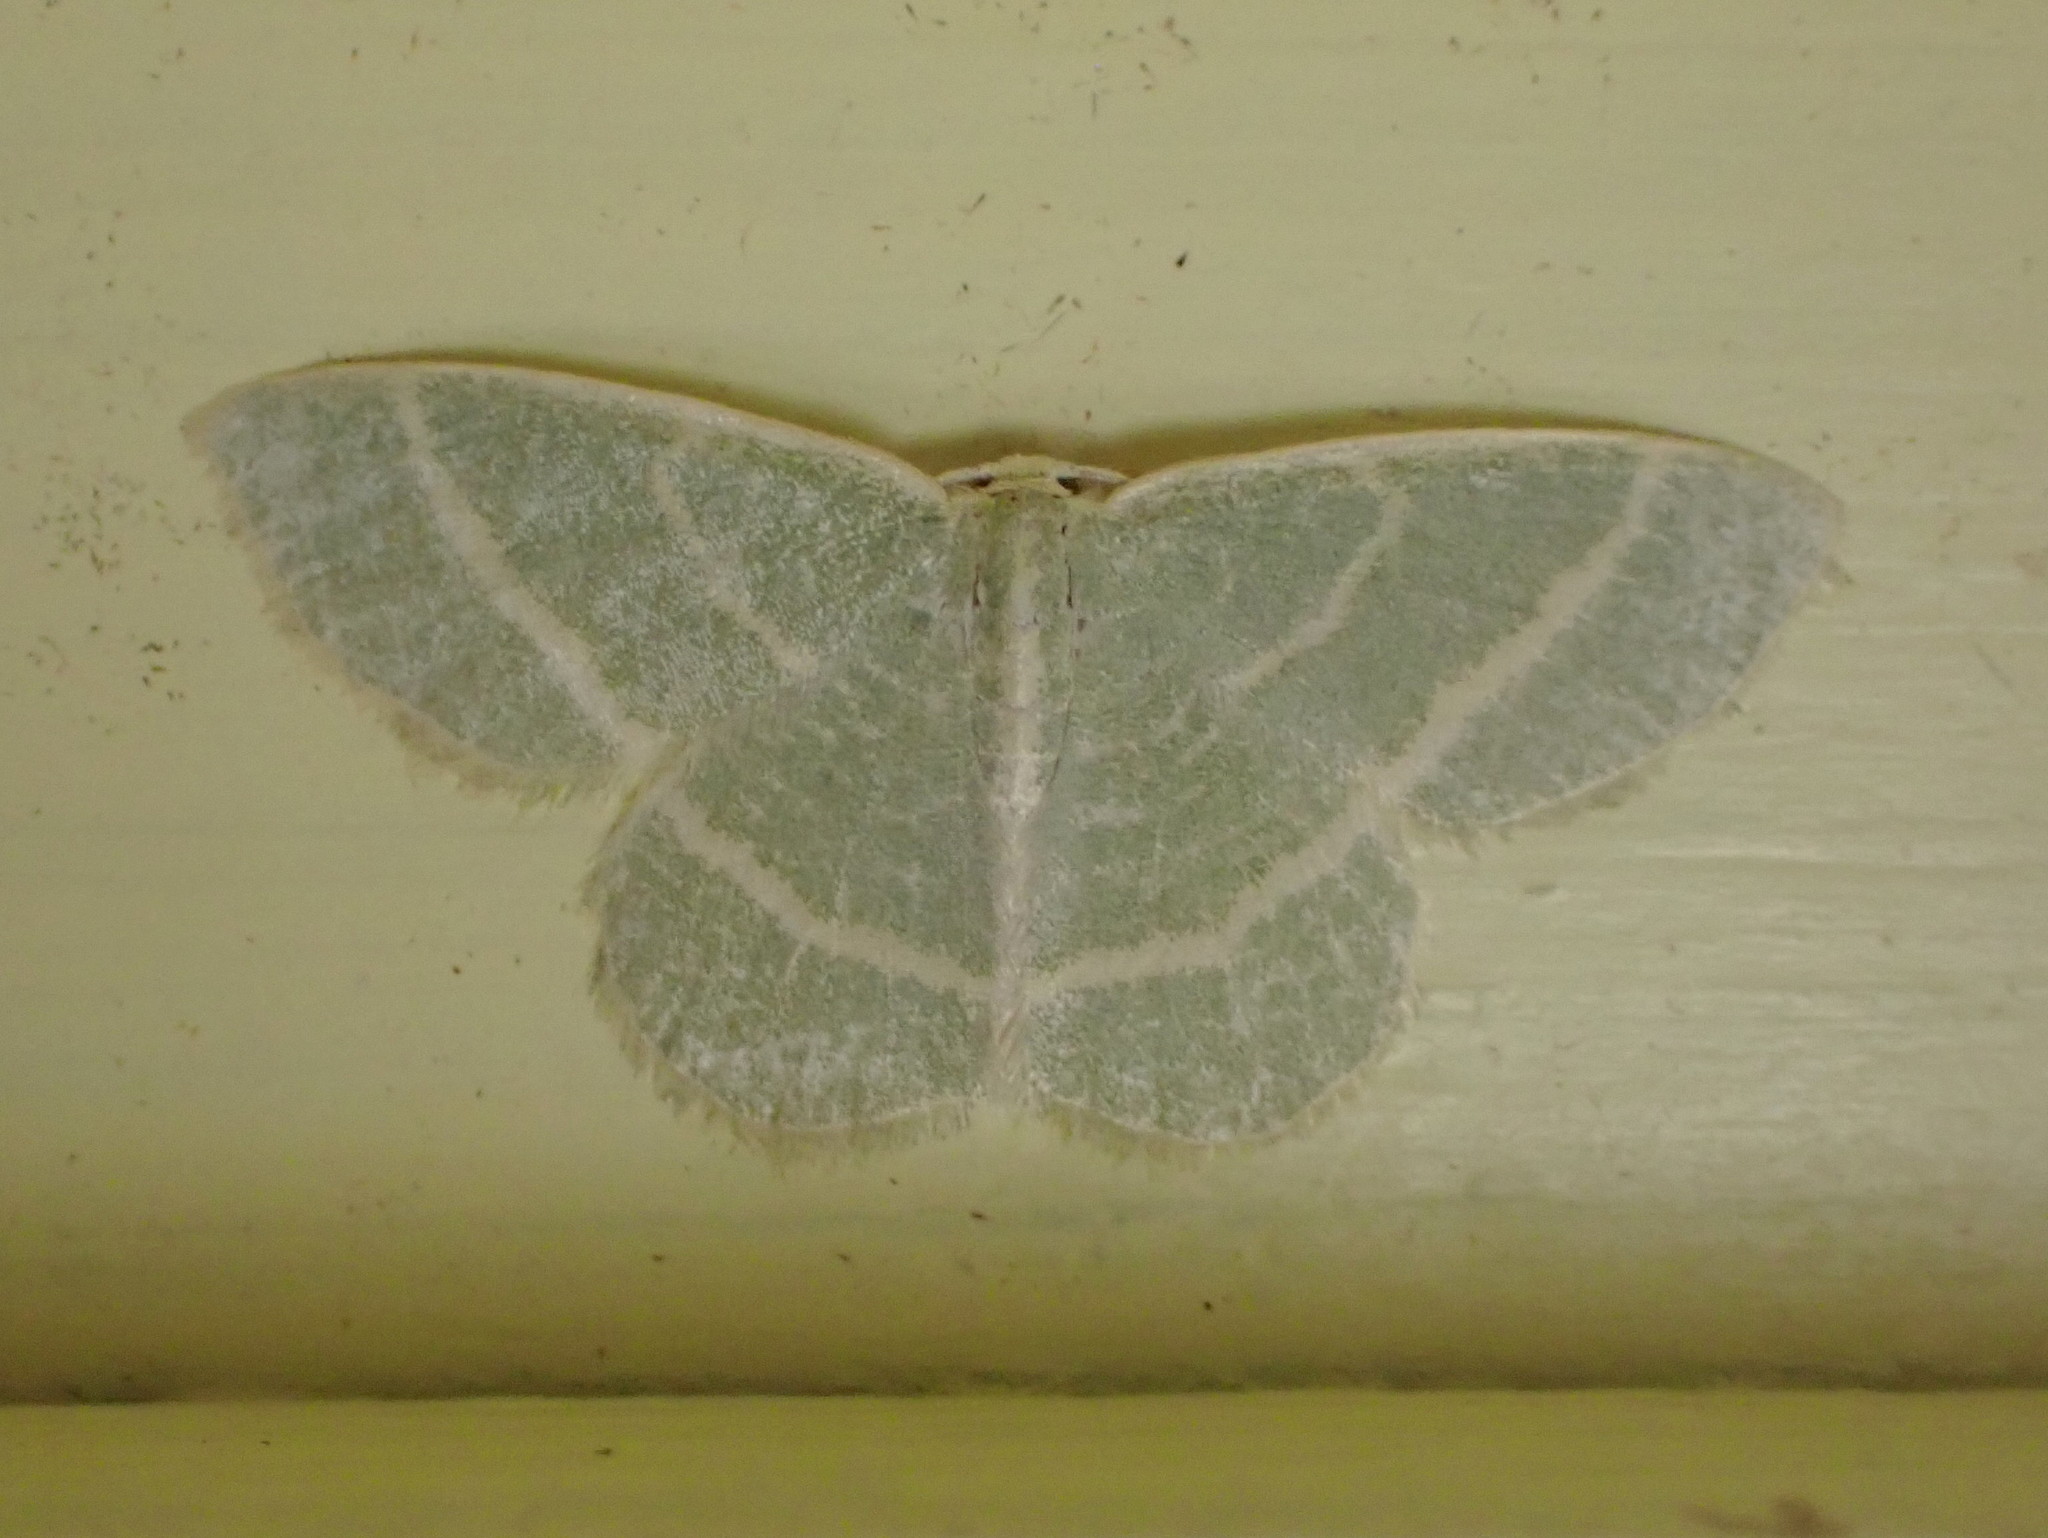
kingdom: Animalia
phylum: Arthropoda
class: Insecta
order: Lepidoptera
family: Geometridae
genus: Chlorochlamys
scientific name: Chlorochlamys chloroleucaria
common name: Blackberry looper
